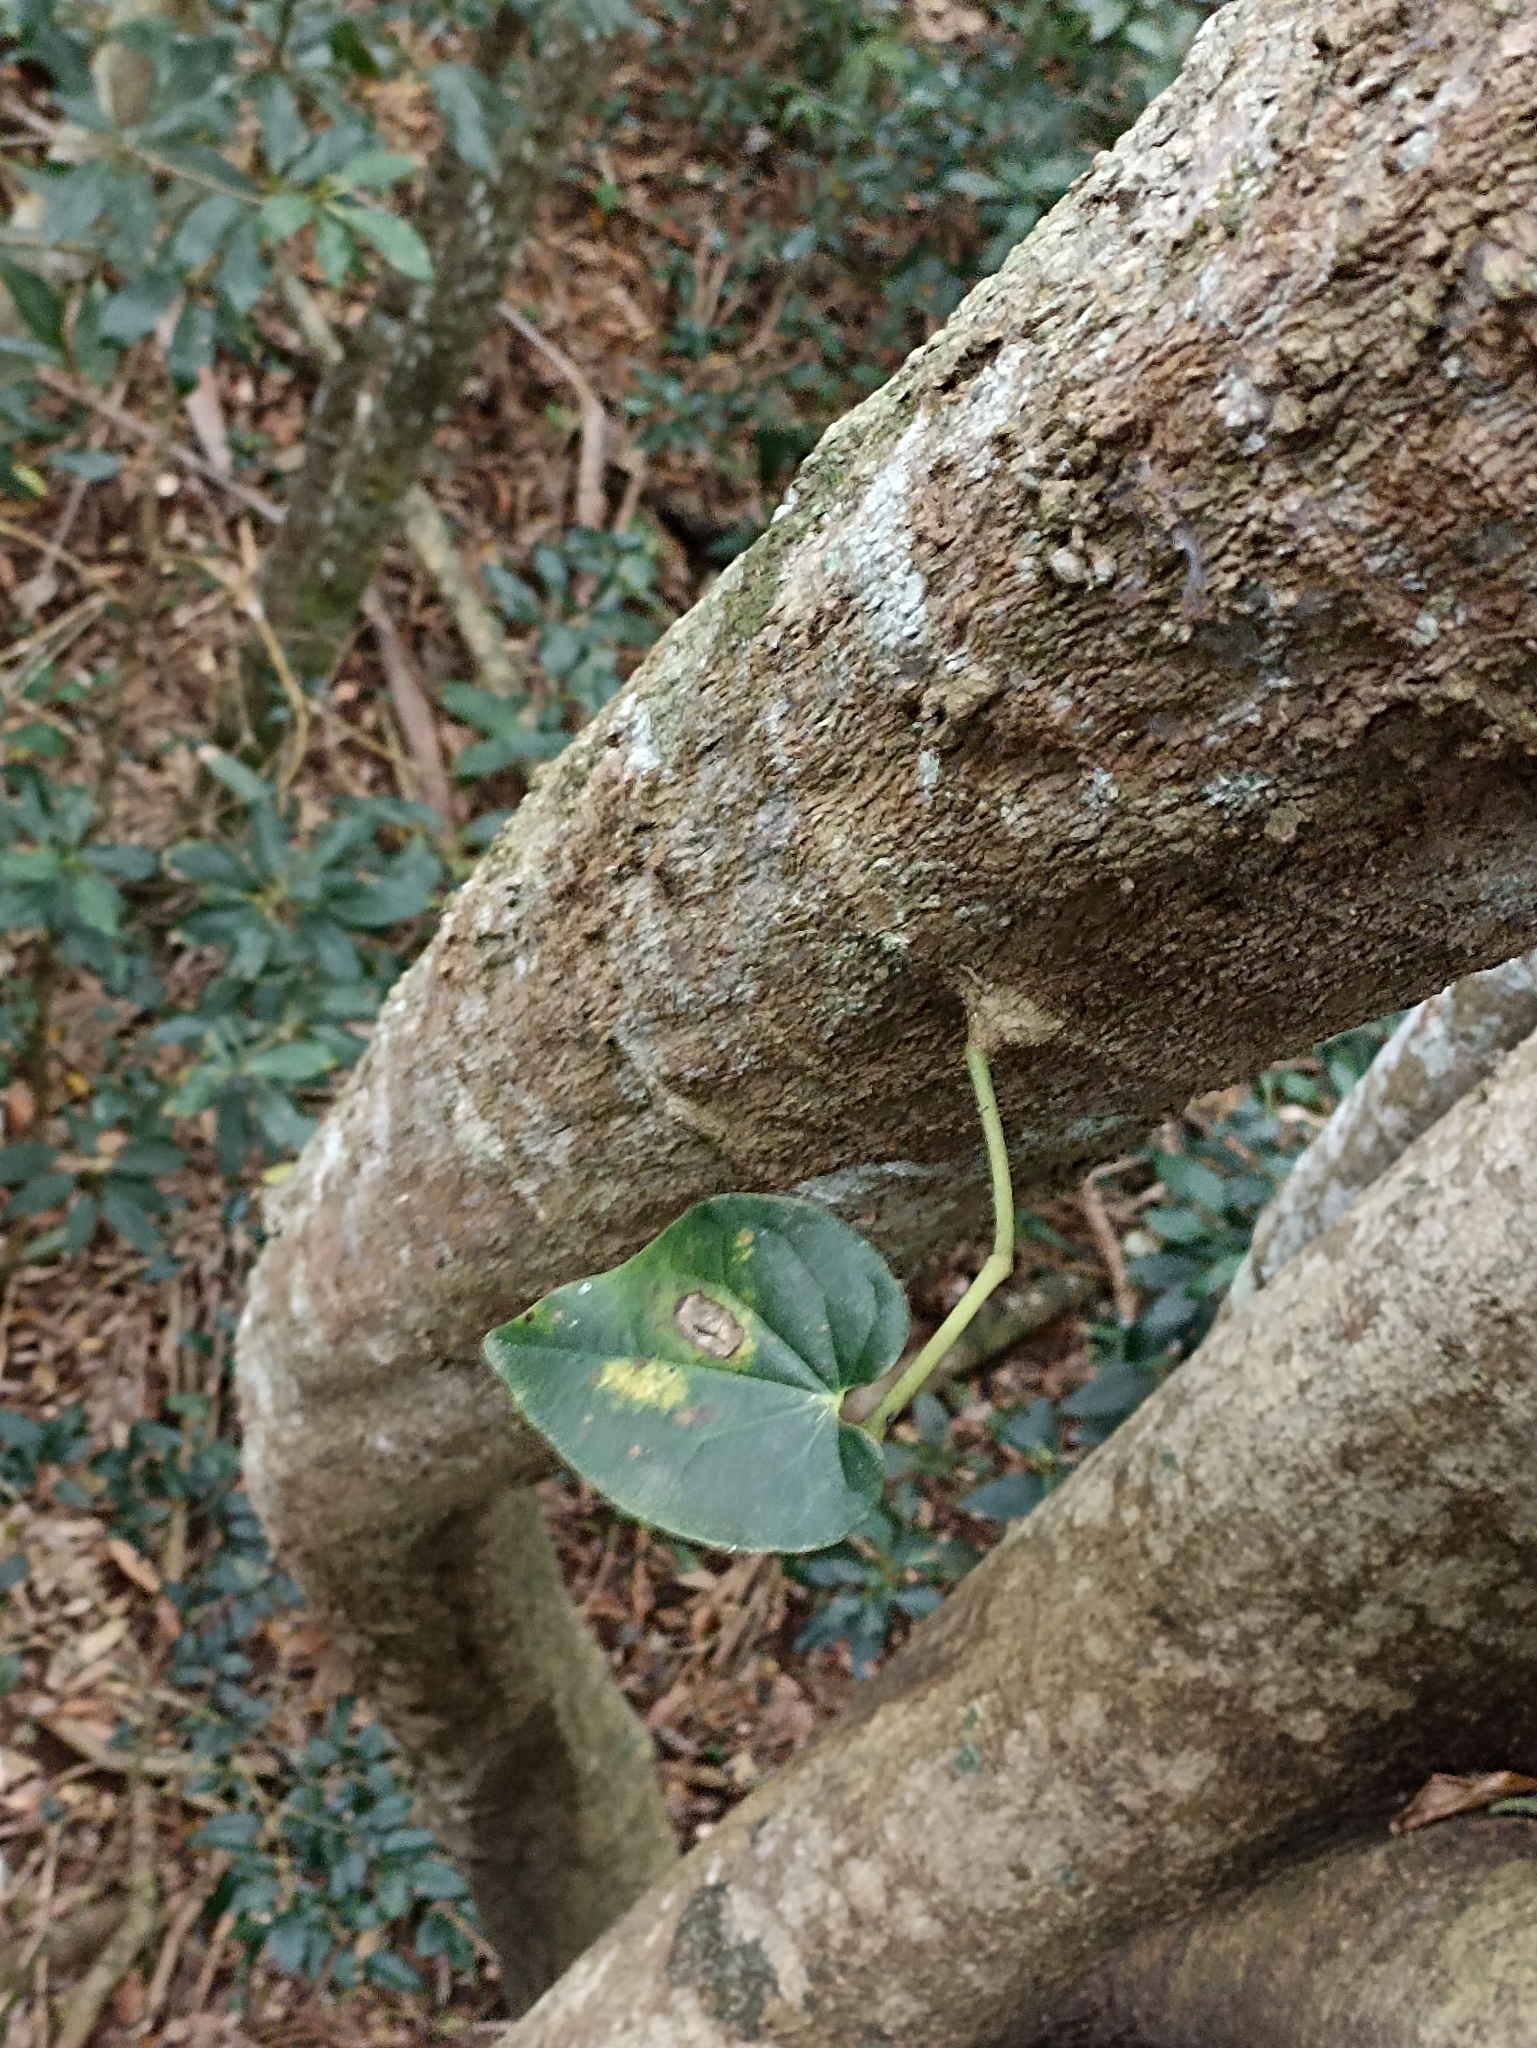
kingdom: Plantae
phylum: Tracheophyta
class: Magnoliopsida
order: Piperales
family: Piperaceae
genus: Piper
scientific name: Piper hederaceum
